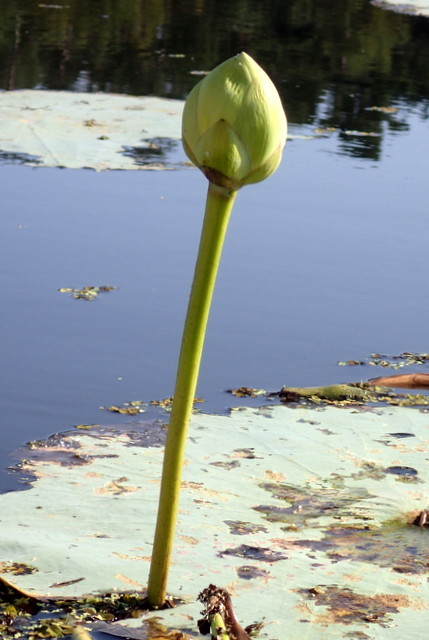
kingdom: Plantae
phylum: Tracheophyta
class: Magnoliopsida
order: Proteales
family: Nelumbonaceae
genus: Nelumbo
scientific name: Nelumbo lutea
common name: American lotus
